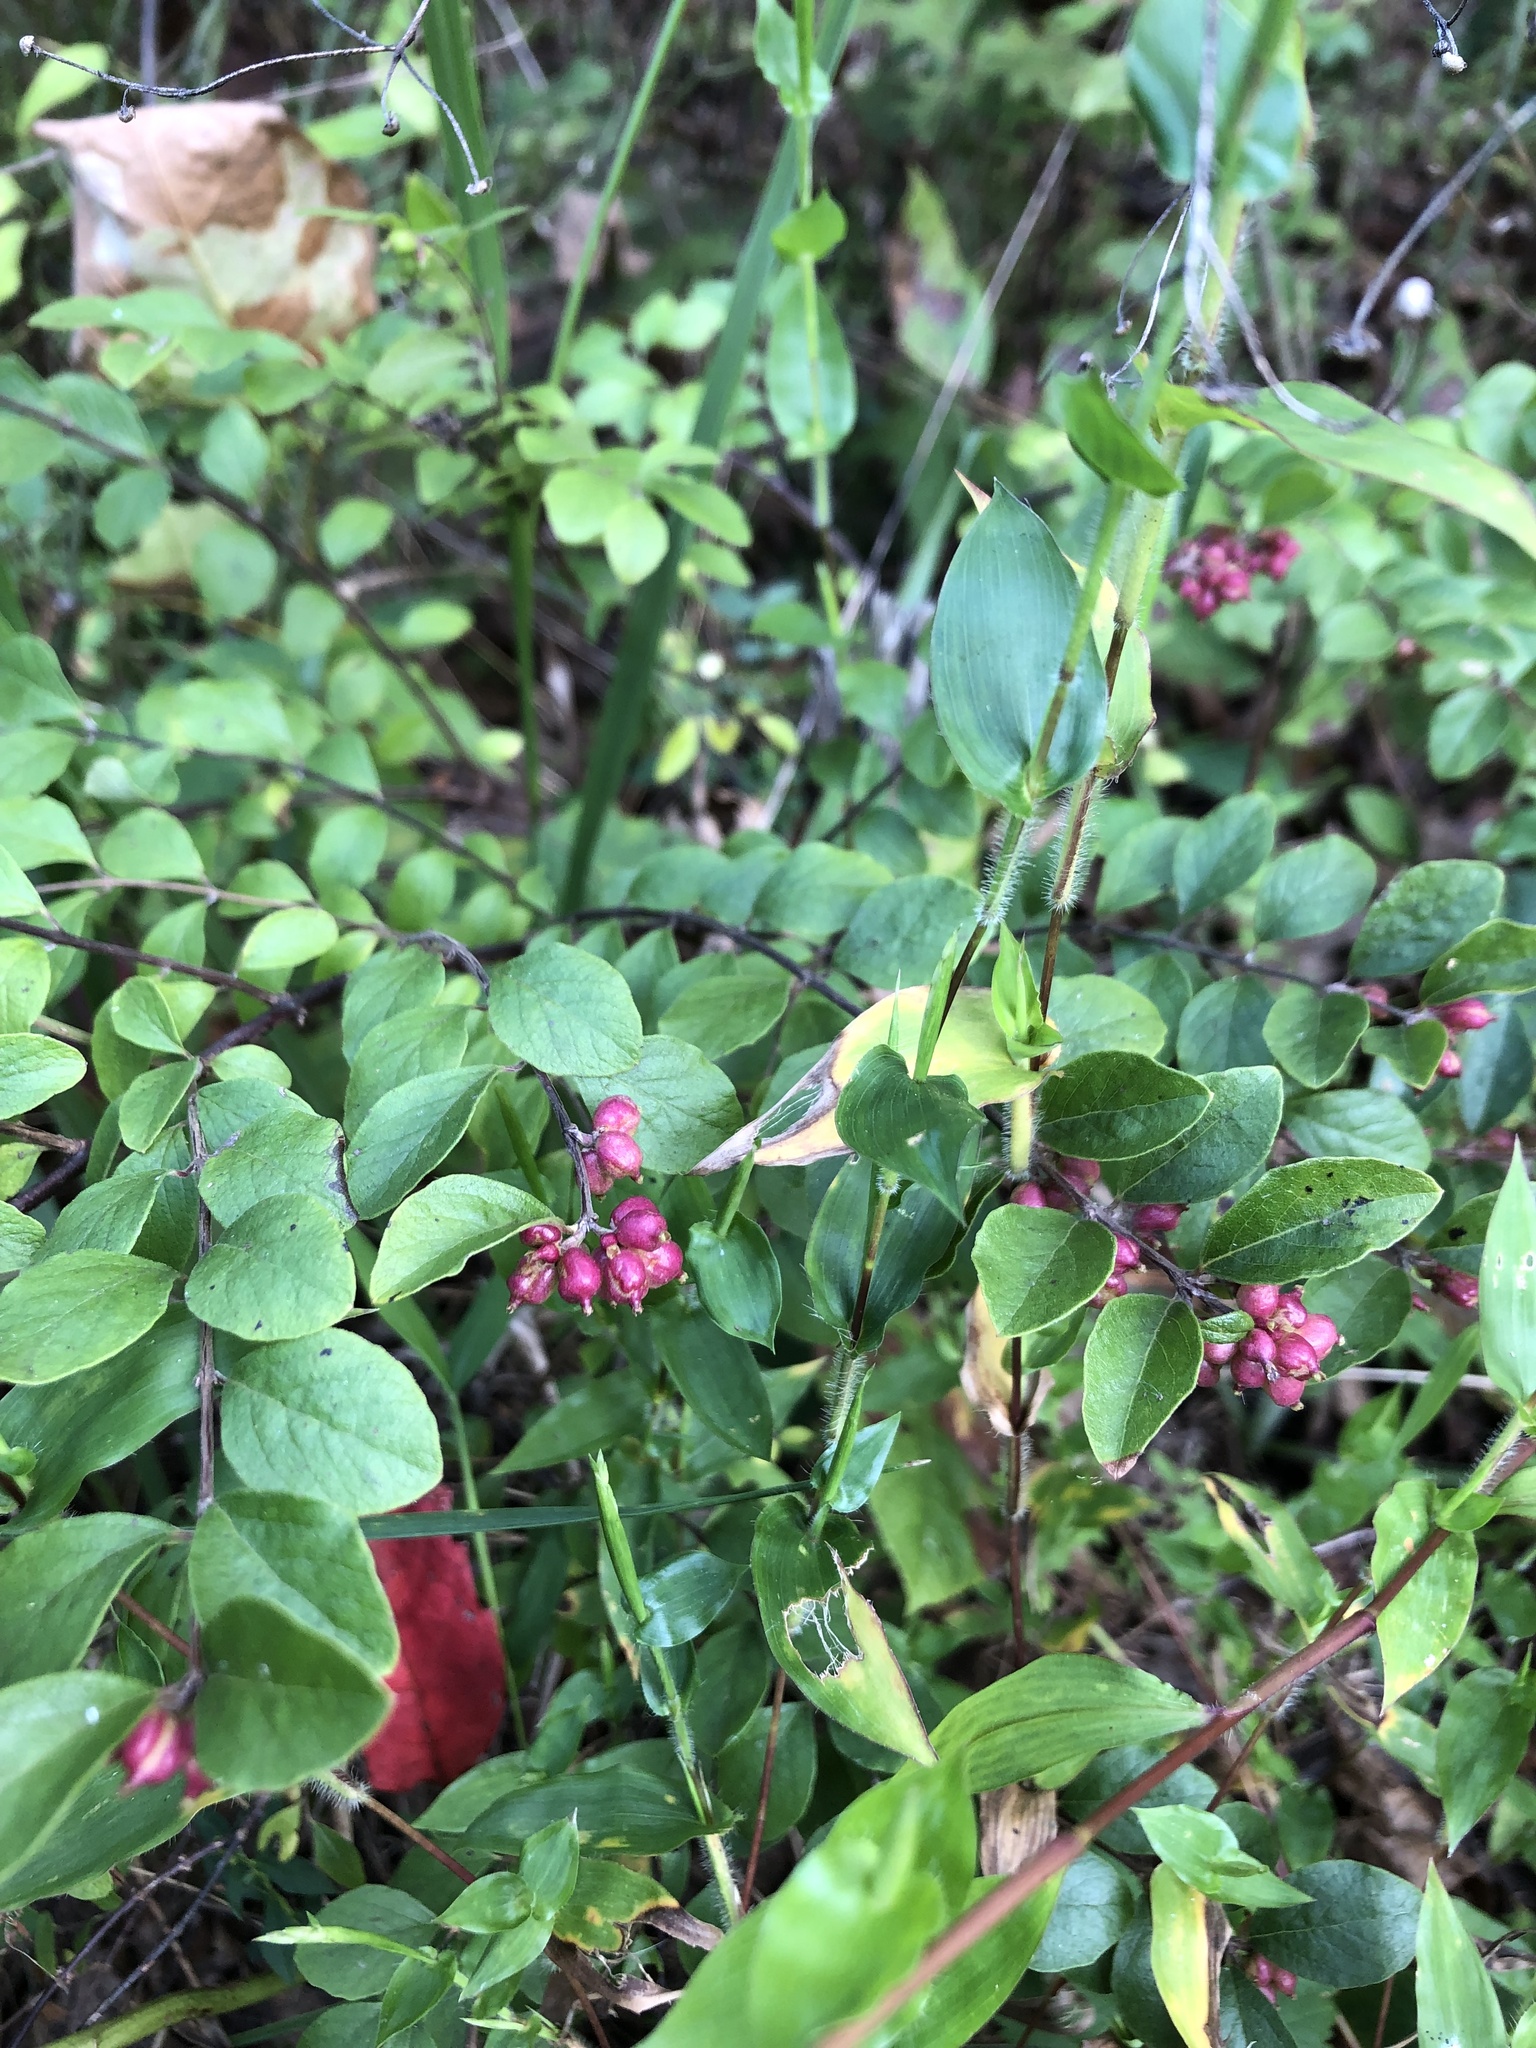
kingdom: Plantae
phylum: Tracheophyta
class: Magnoliopsida
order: Dipsacales
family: Caprifoliaceae
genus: Symphoricarpos
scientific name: Symphoricarpos orbiculatus
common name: Coralberry
